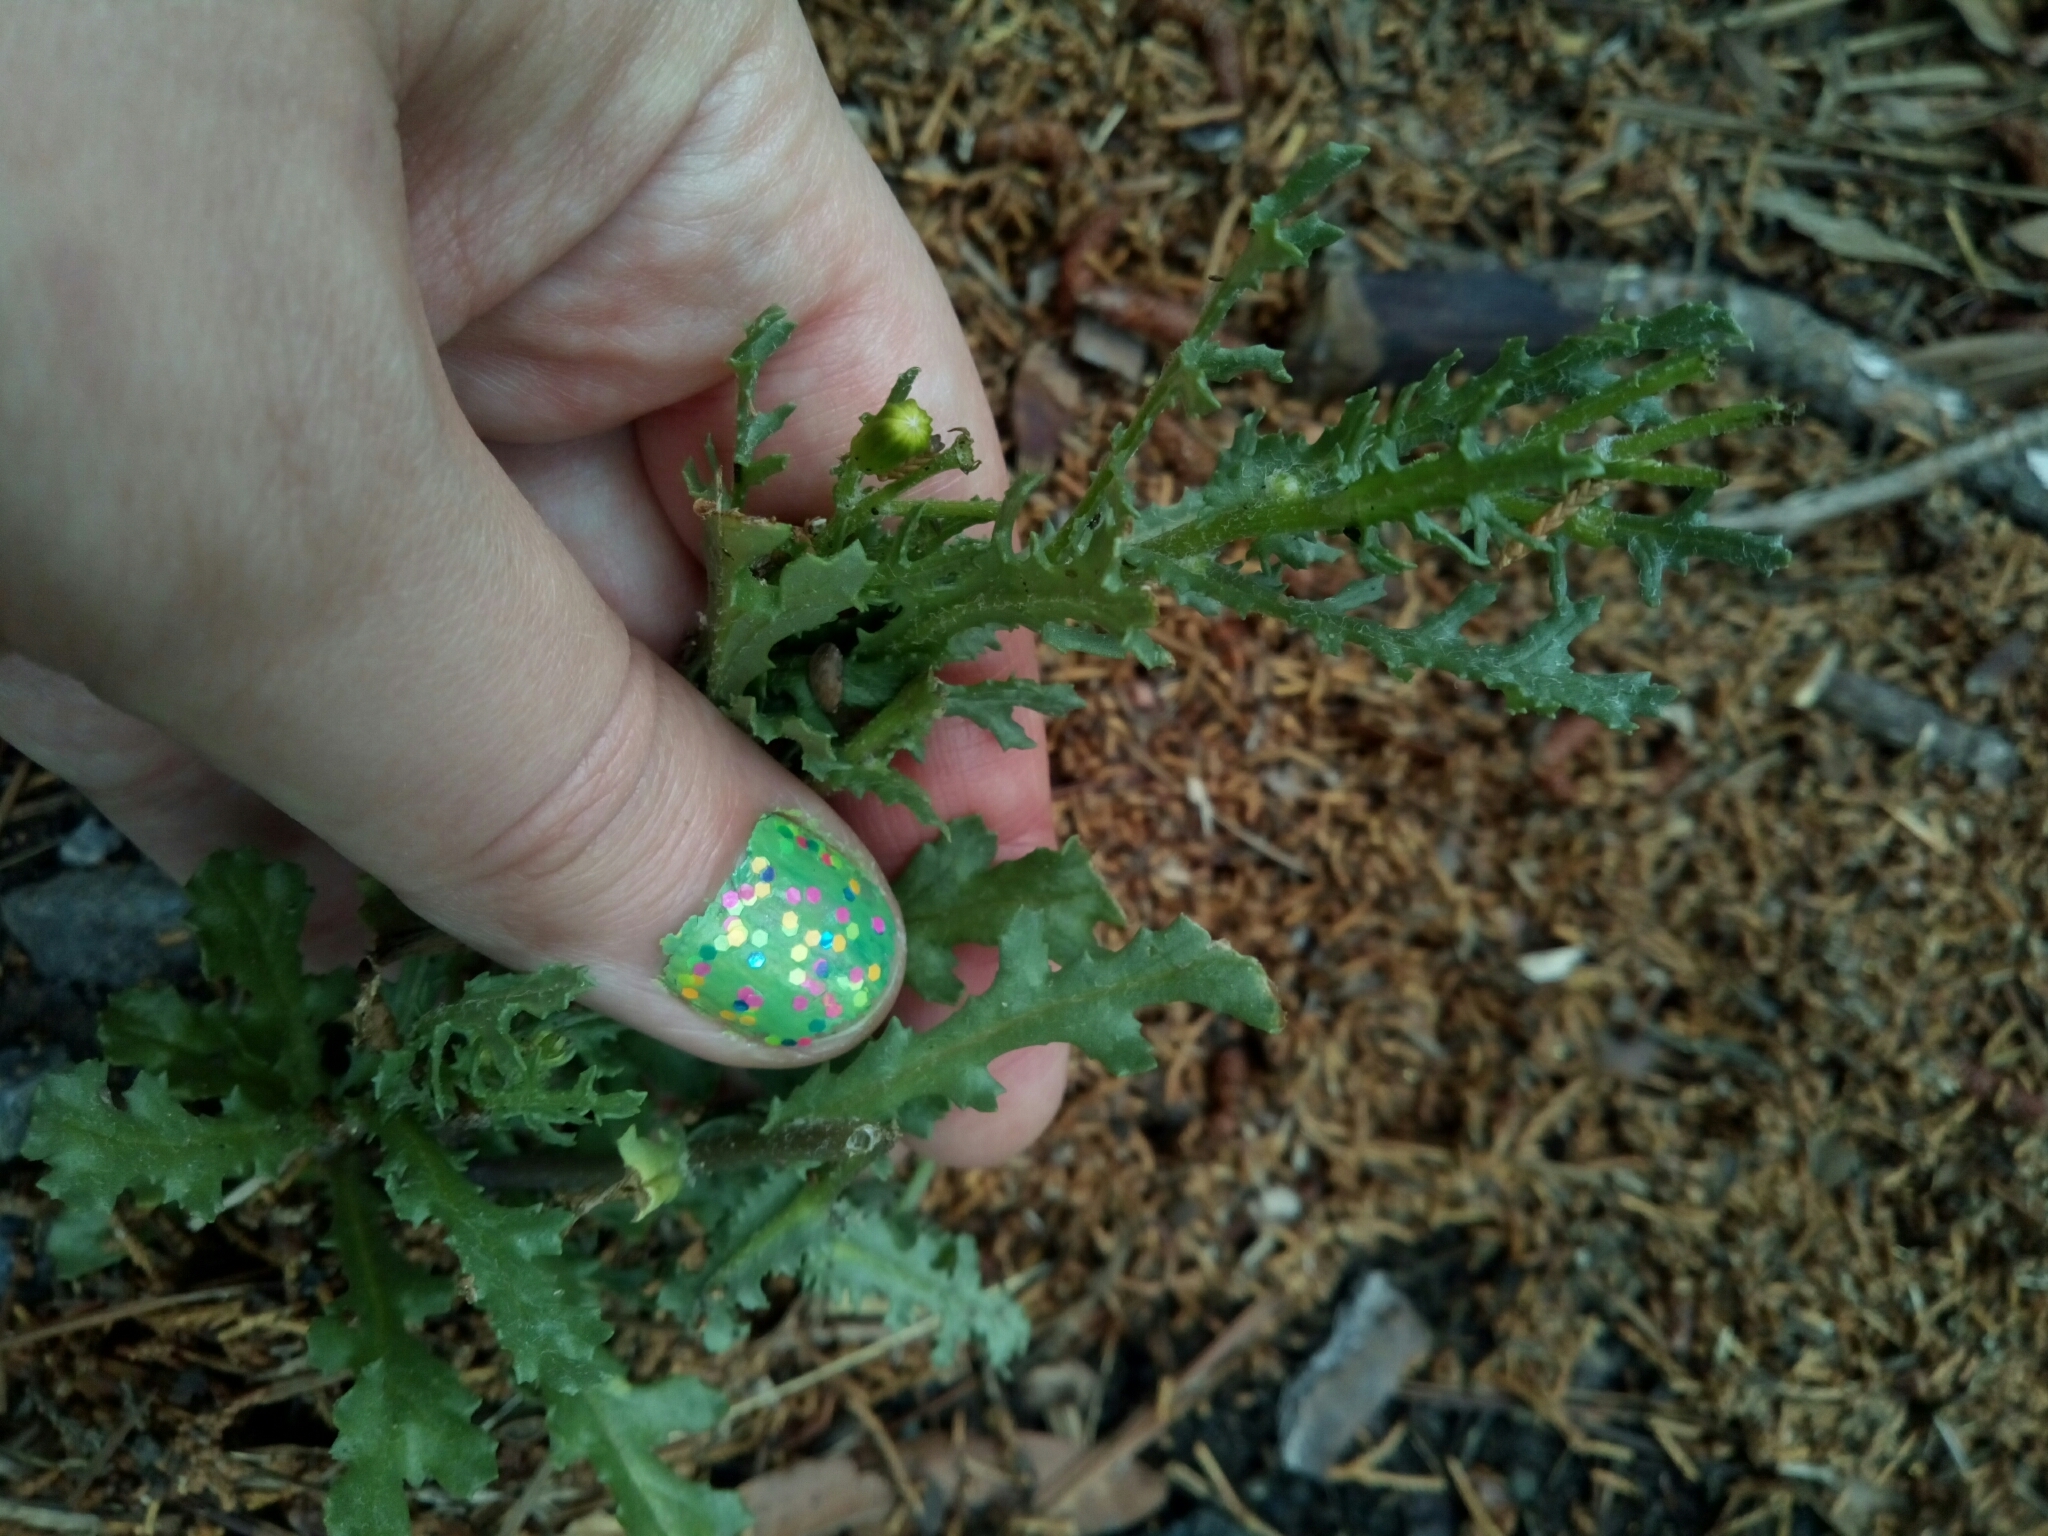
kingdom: Plantae
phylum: Tracheophyta
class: Magnoliopsida
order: Asterales
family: Asteraceae
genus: Senecio
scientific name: Senecio vulgaris
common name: Old-man-in-the-spring
